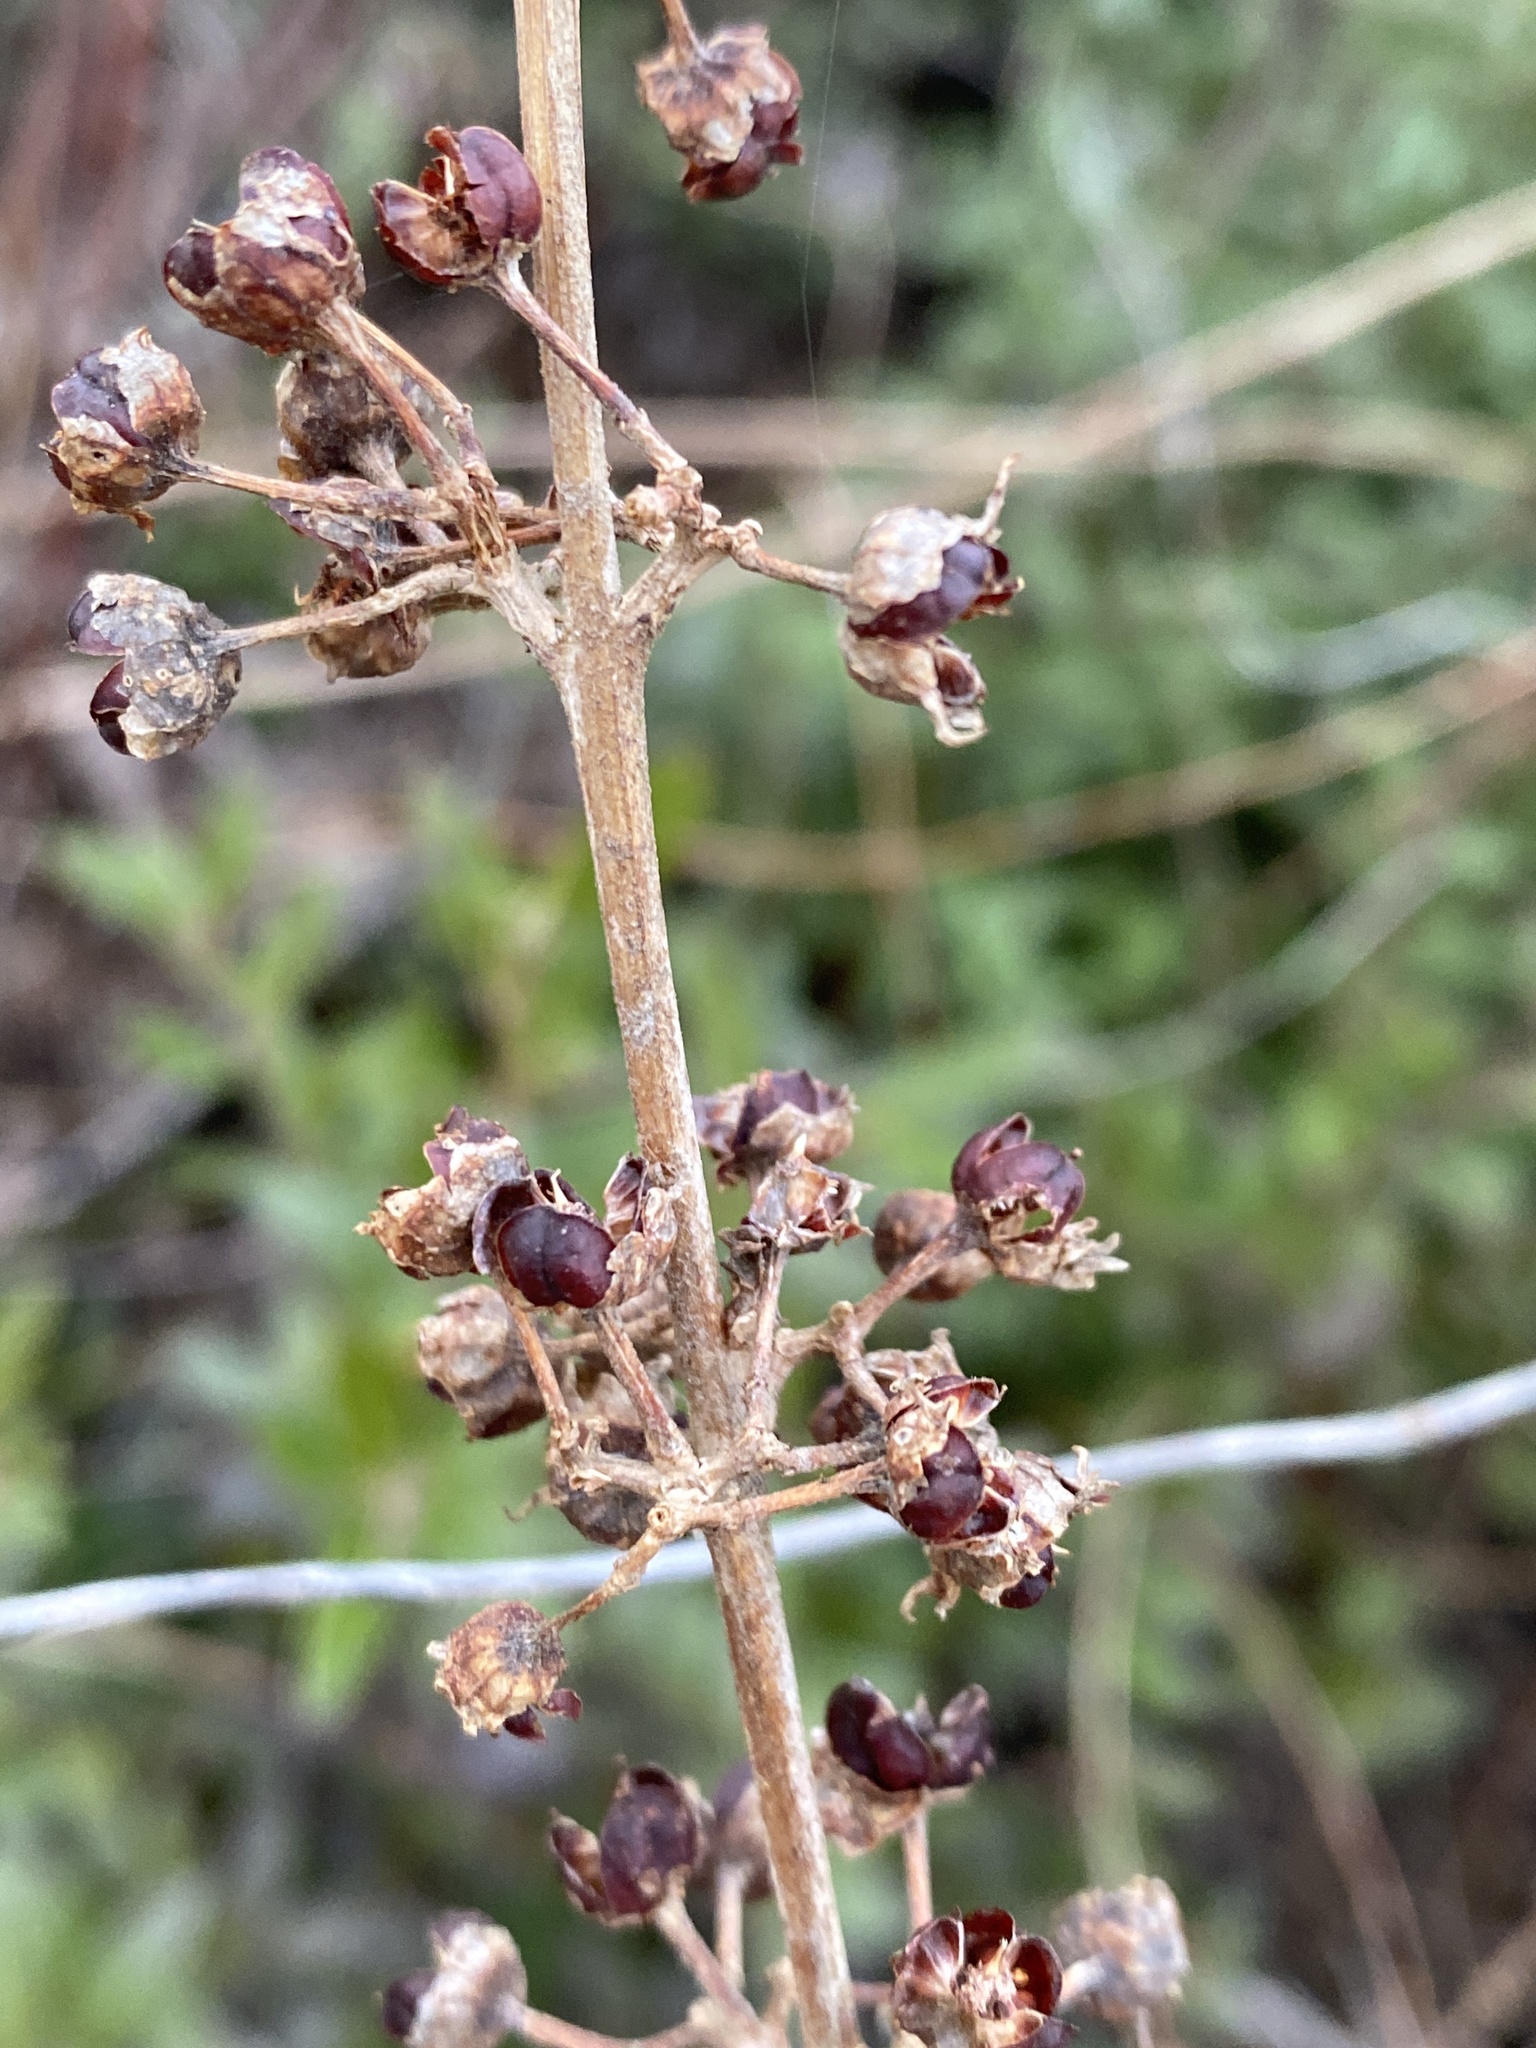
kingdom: Plantae
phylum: Tracheophyta
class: Magnoliopsida
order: Myrtales
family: Lythraceae
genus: Decodon
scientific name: Decodon verticillatus
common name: Hairy swamp loosestrife
